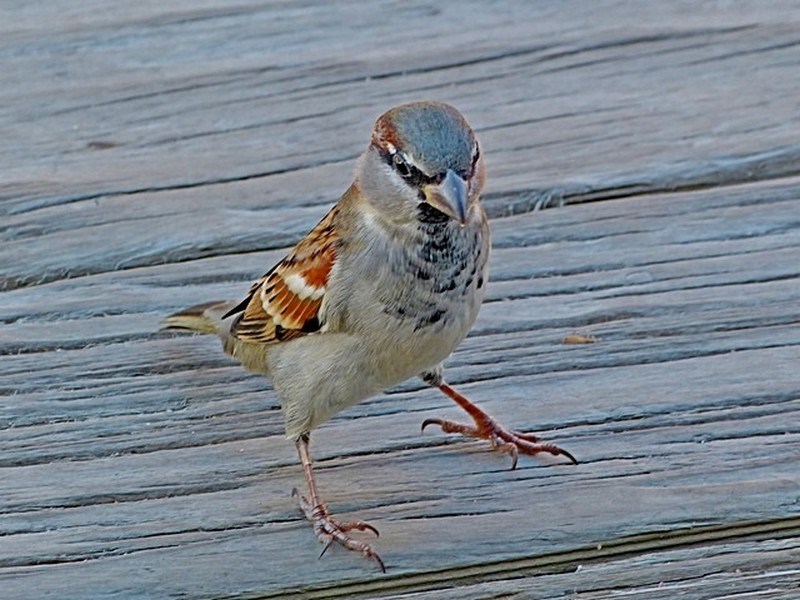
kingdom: Animalia
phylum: Chordata
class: Aves
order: Passeriformes
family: Passeridae
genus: Passer
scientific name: Passer domesticus
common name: House sparrow
